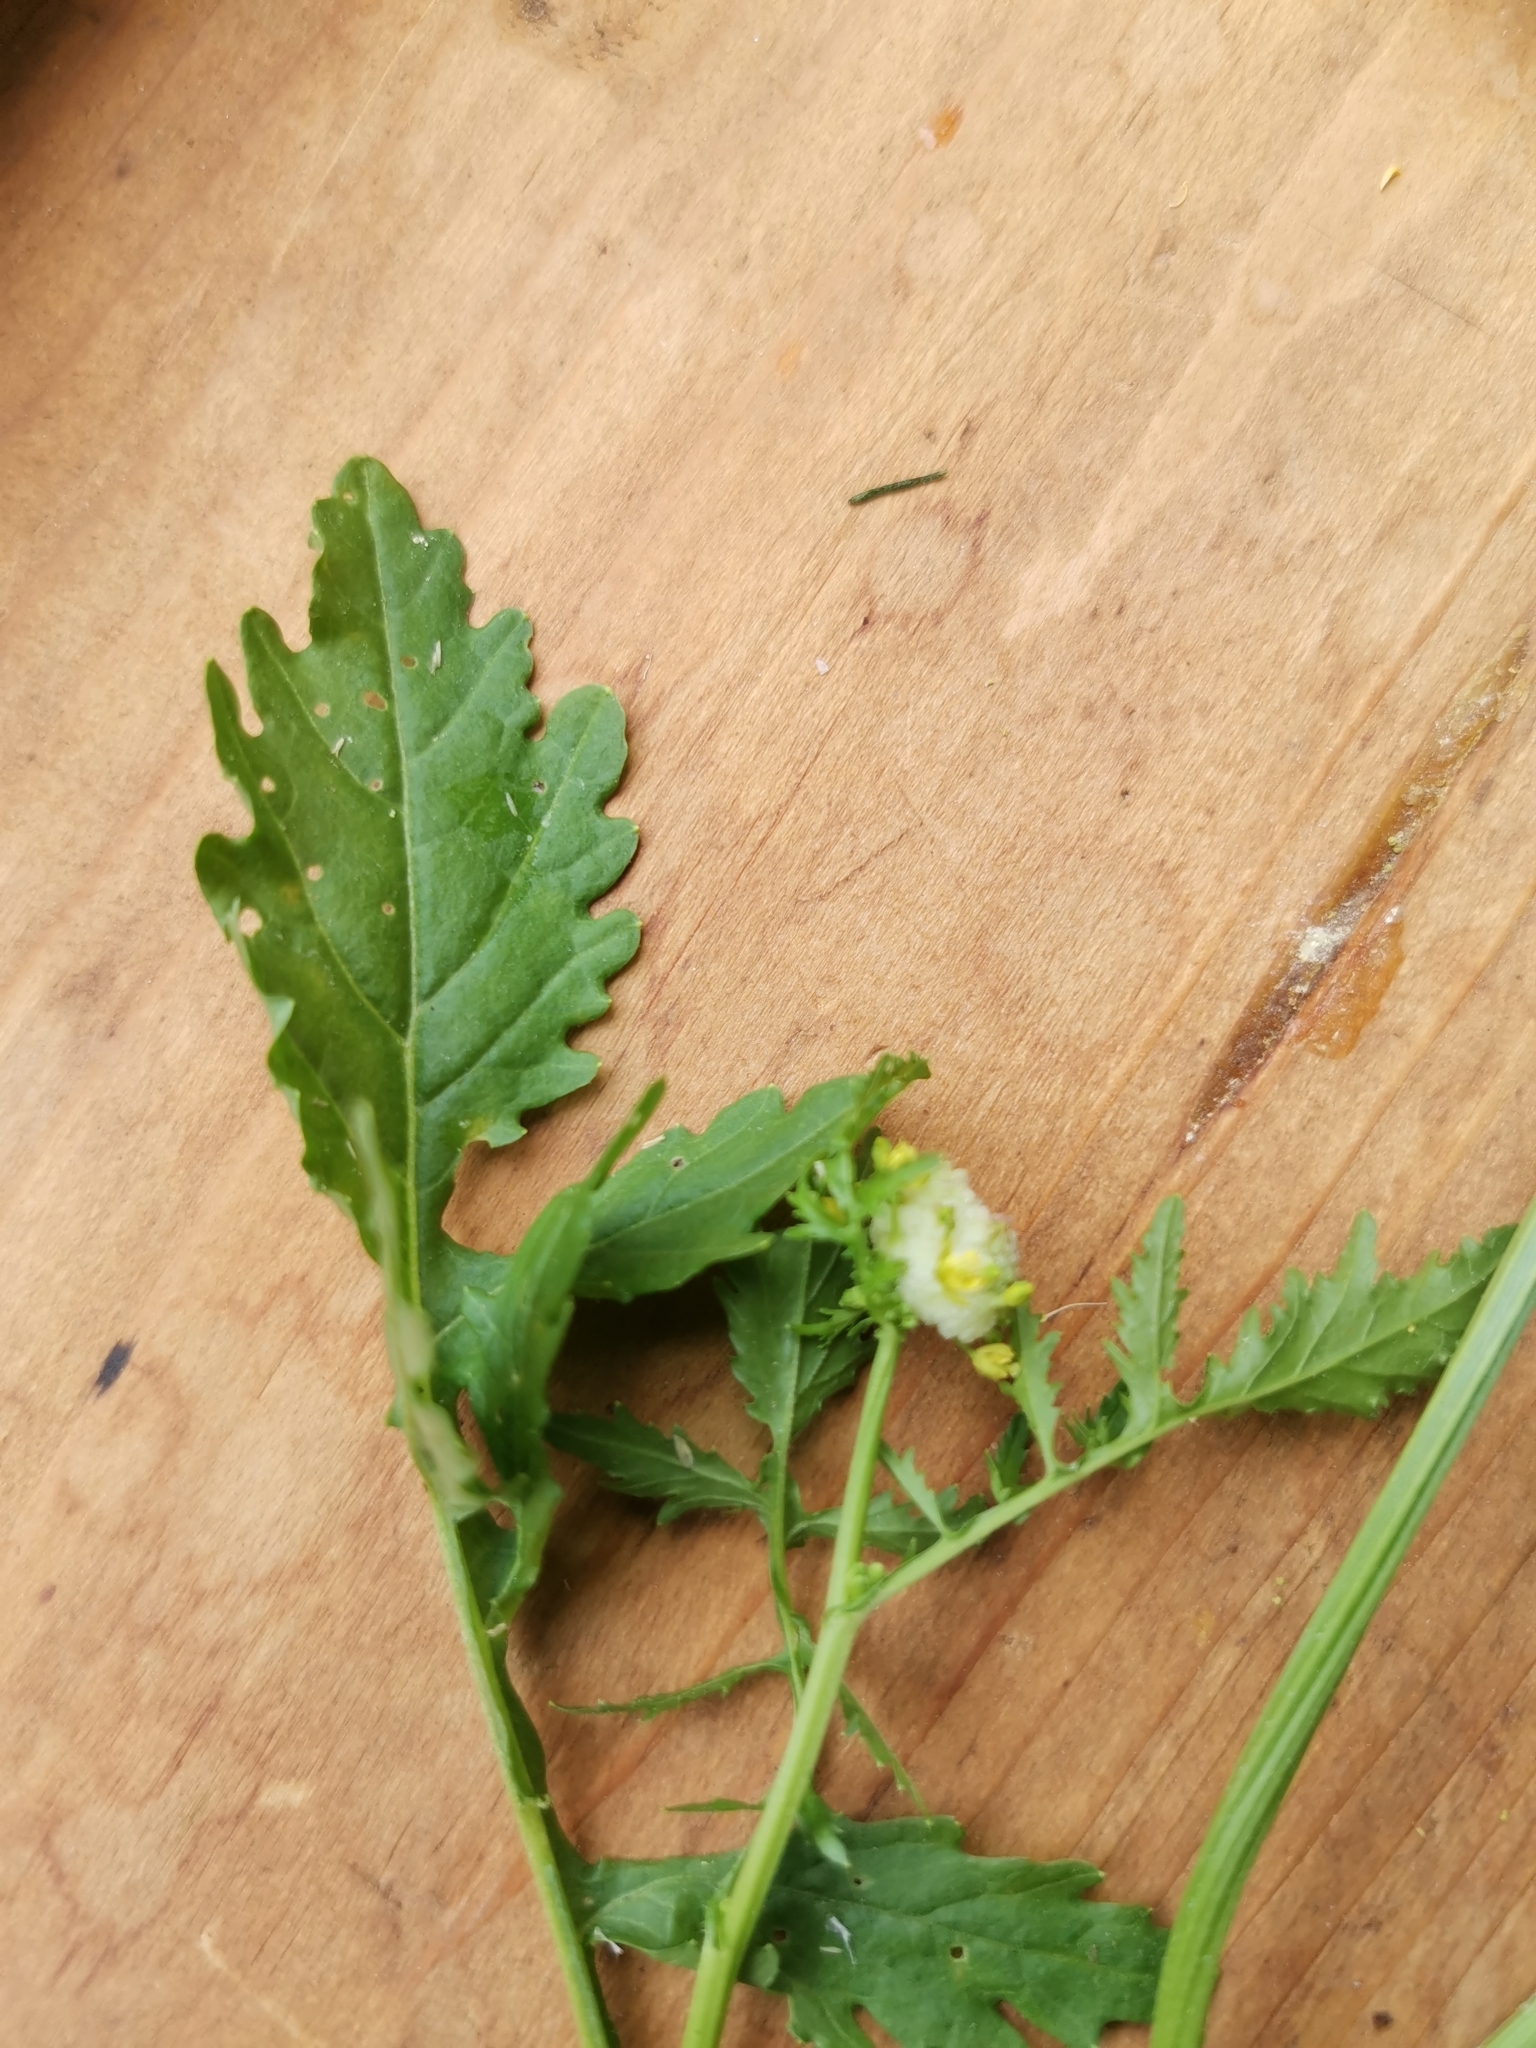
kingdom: Plantae
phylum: Tracheophyta
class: Magnoliopsida
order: Brassicales
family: Brassicaceae
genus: Rorippa
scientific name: Rorippa palustris
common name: Marsh yellow-cress
